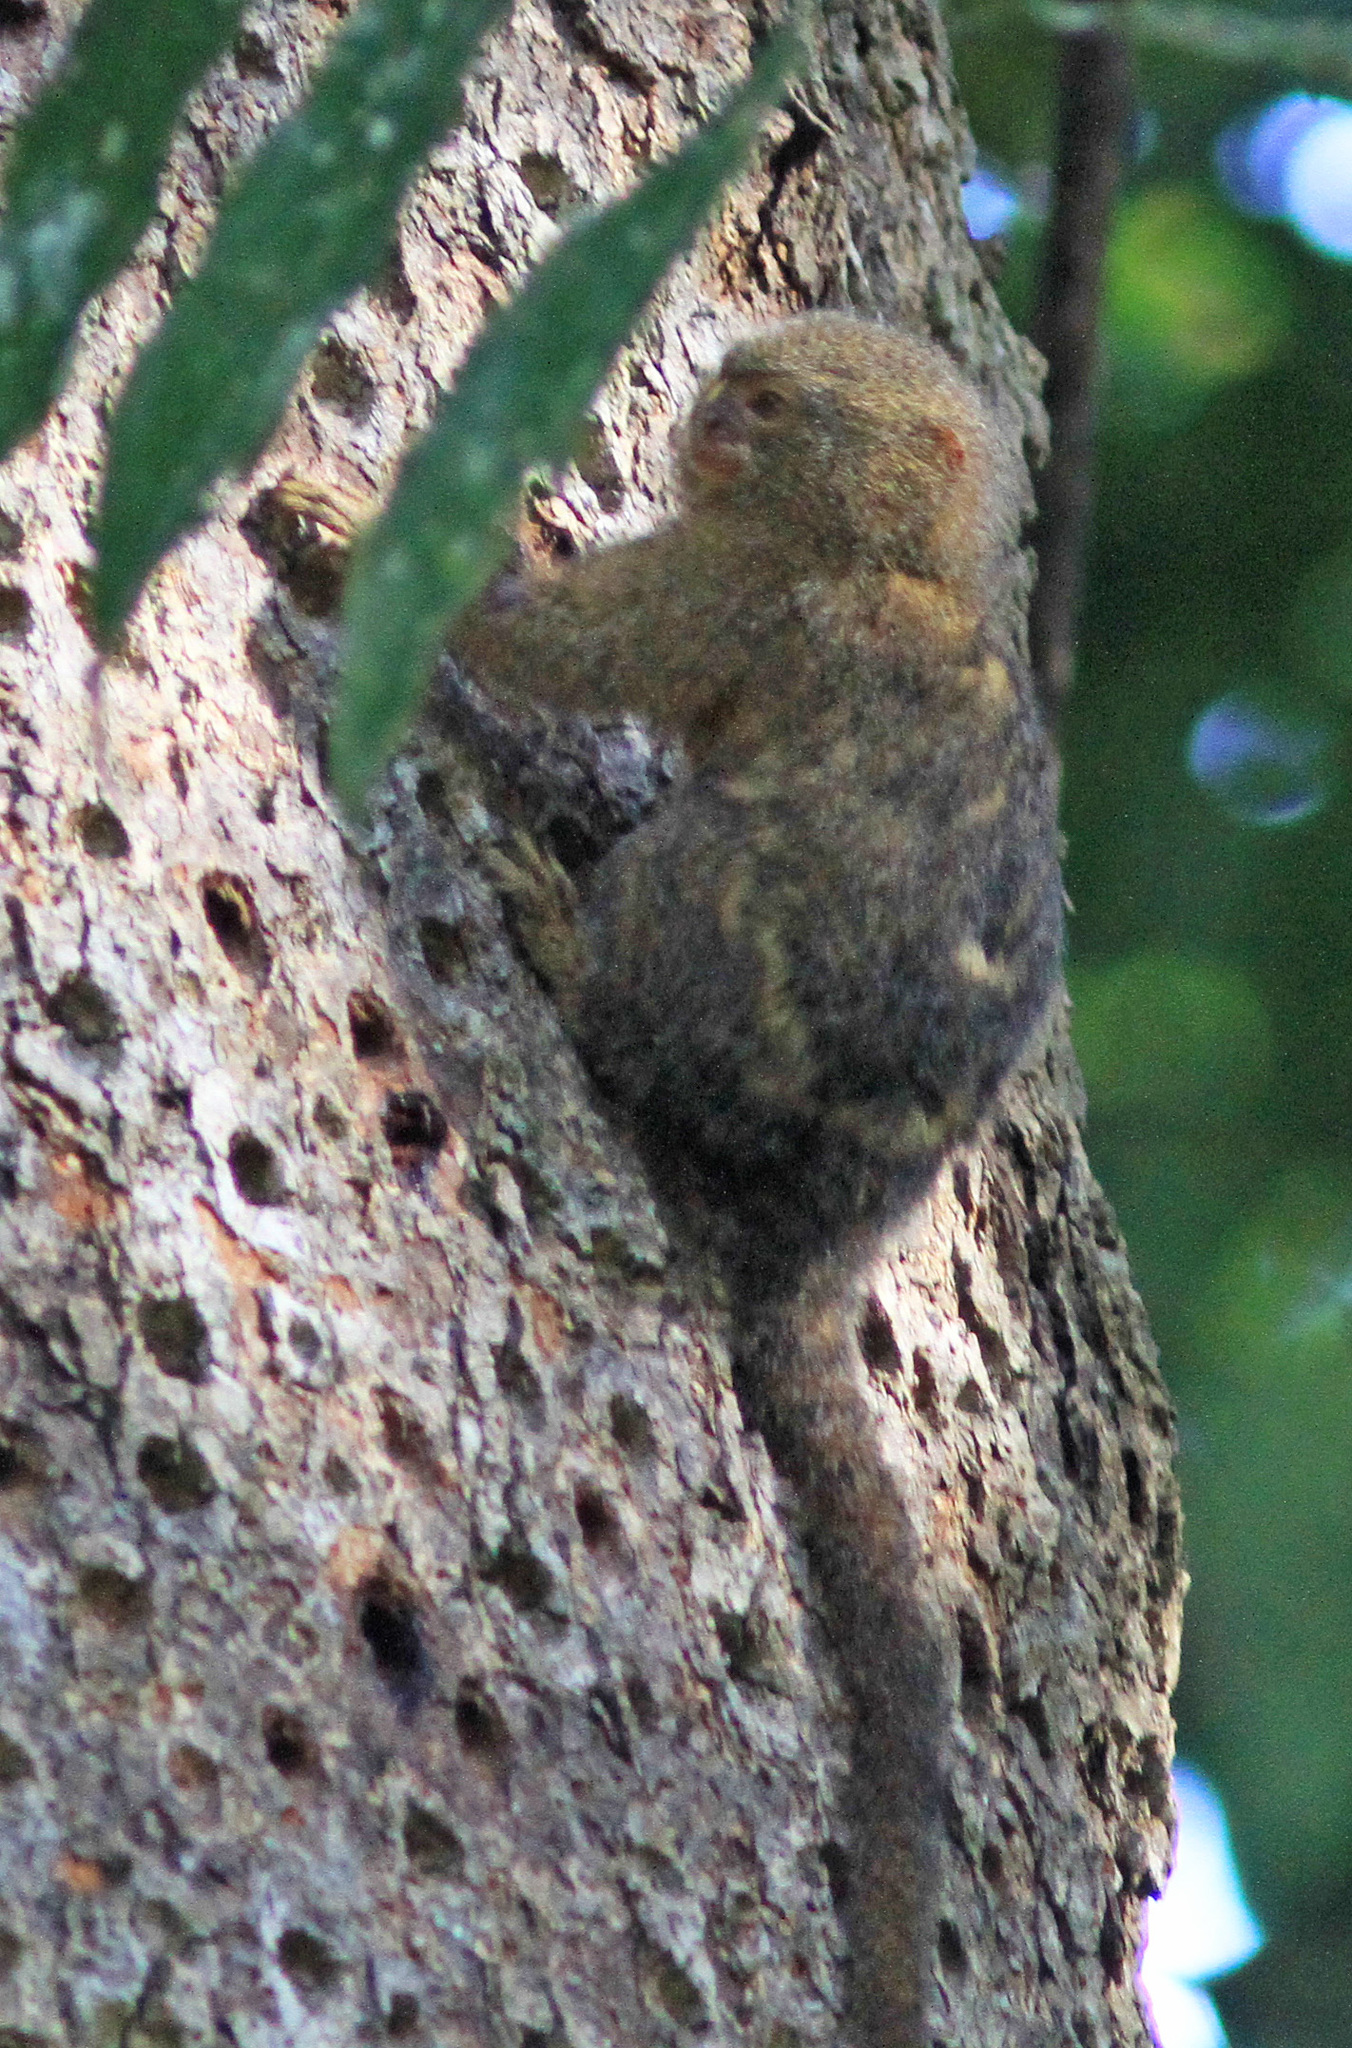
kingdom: Animalia
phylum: Chordata
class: Mammalia
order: Primates
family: Callitrichidae
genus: Cebuella
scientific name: Cebuella pygmaea
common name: Pygmy marmoset
